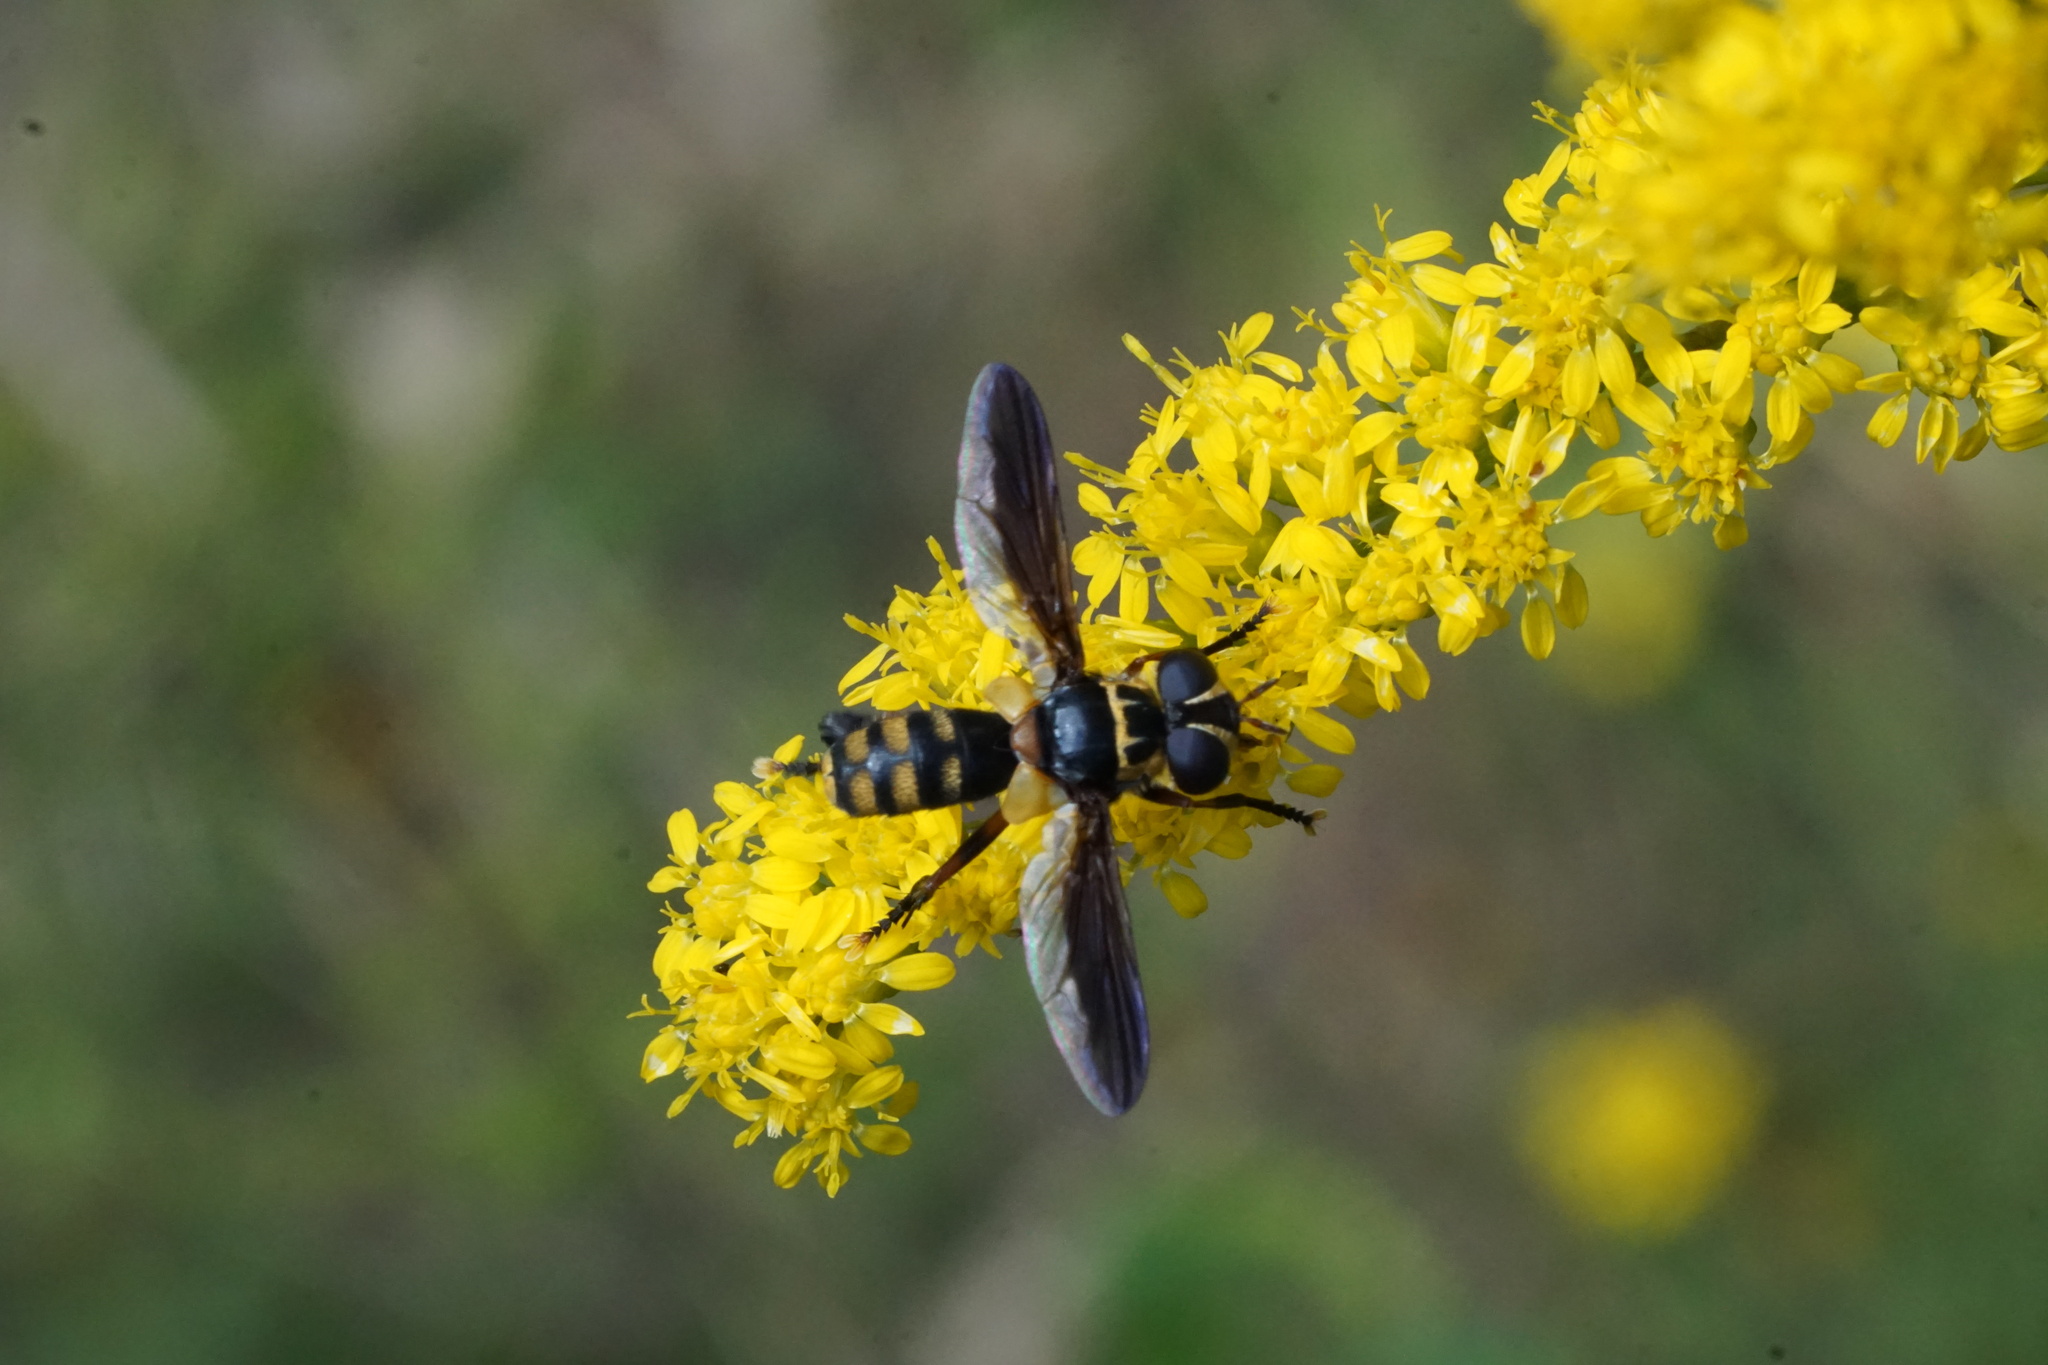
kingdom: Animalia
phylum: Arthropoda
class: Insecta
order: Diptera
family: Tachinidae
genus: Trichopoda
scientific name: Trichopoda plumipes
